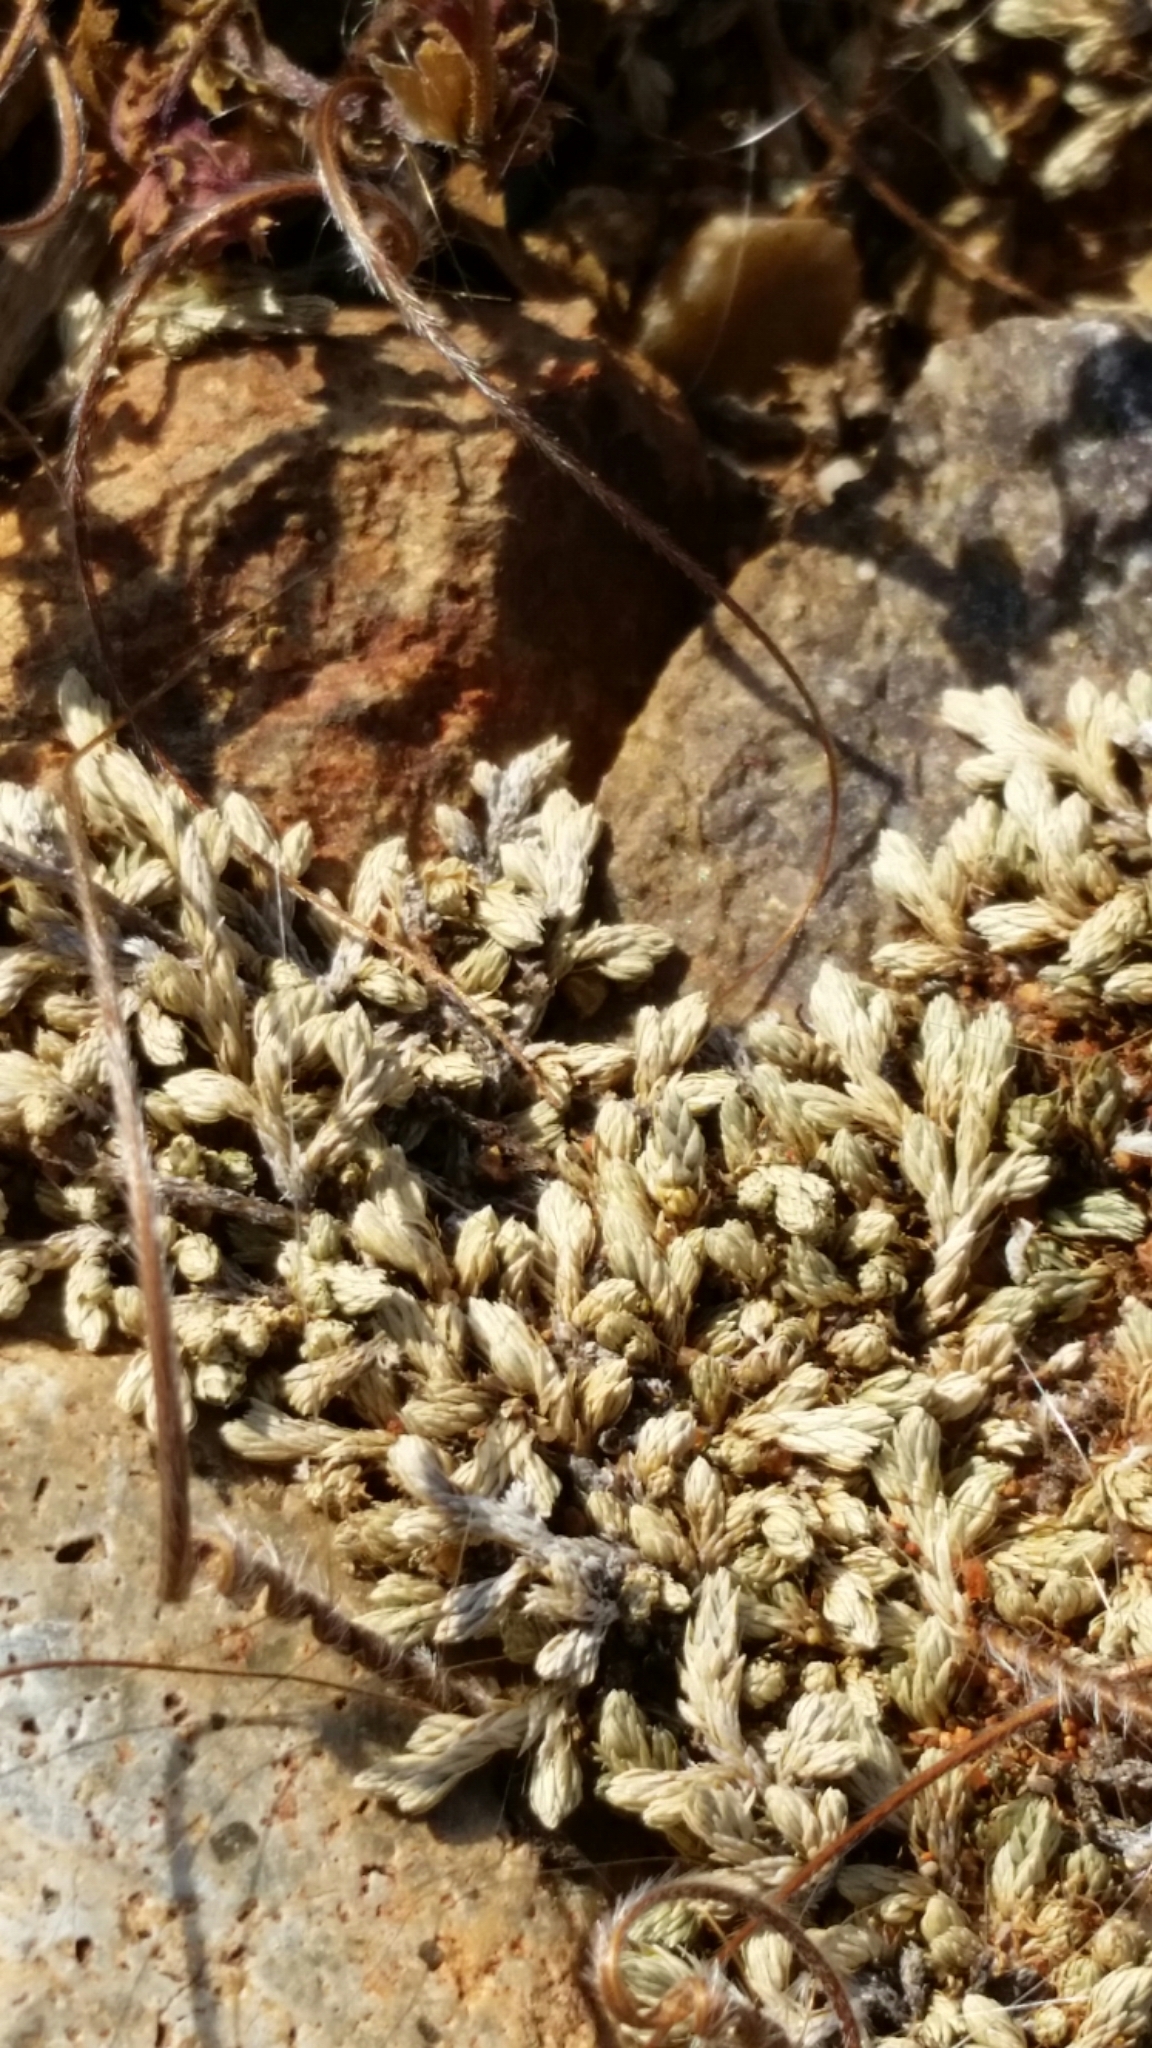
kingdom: Plantae
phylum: Tracheophyta
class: Lycopodiopsida
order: Selaginellales
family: Selaginellaceae
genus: Selaginella
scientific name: Selaginella cinerascens
